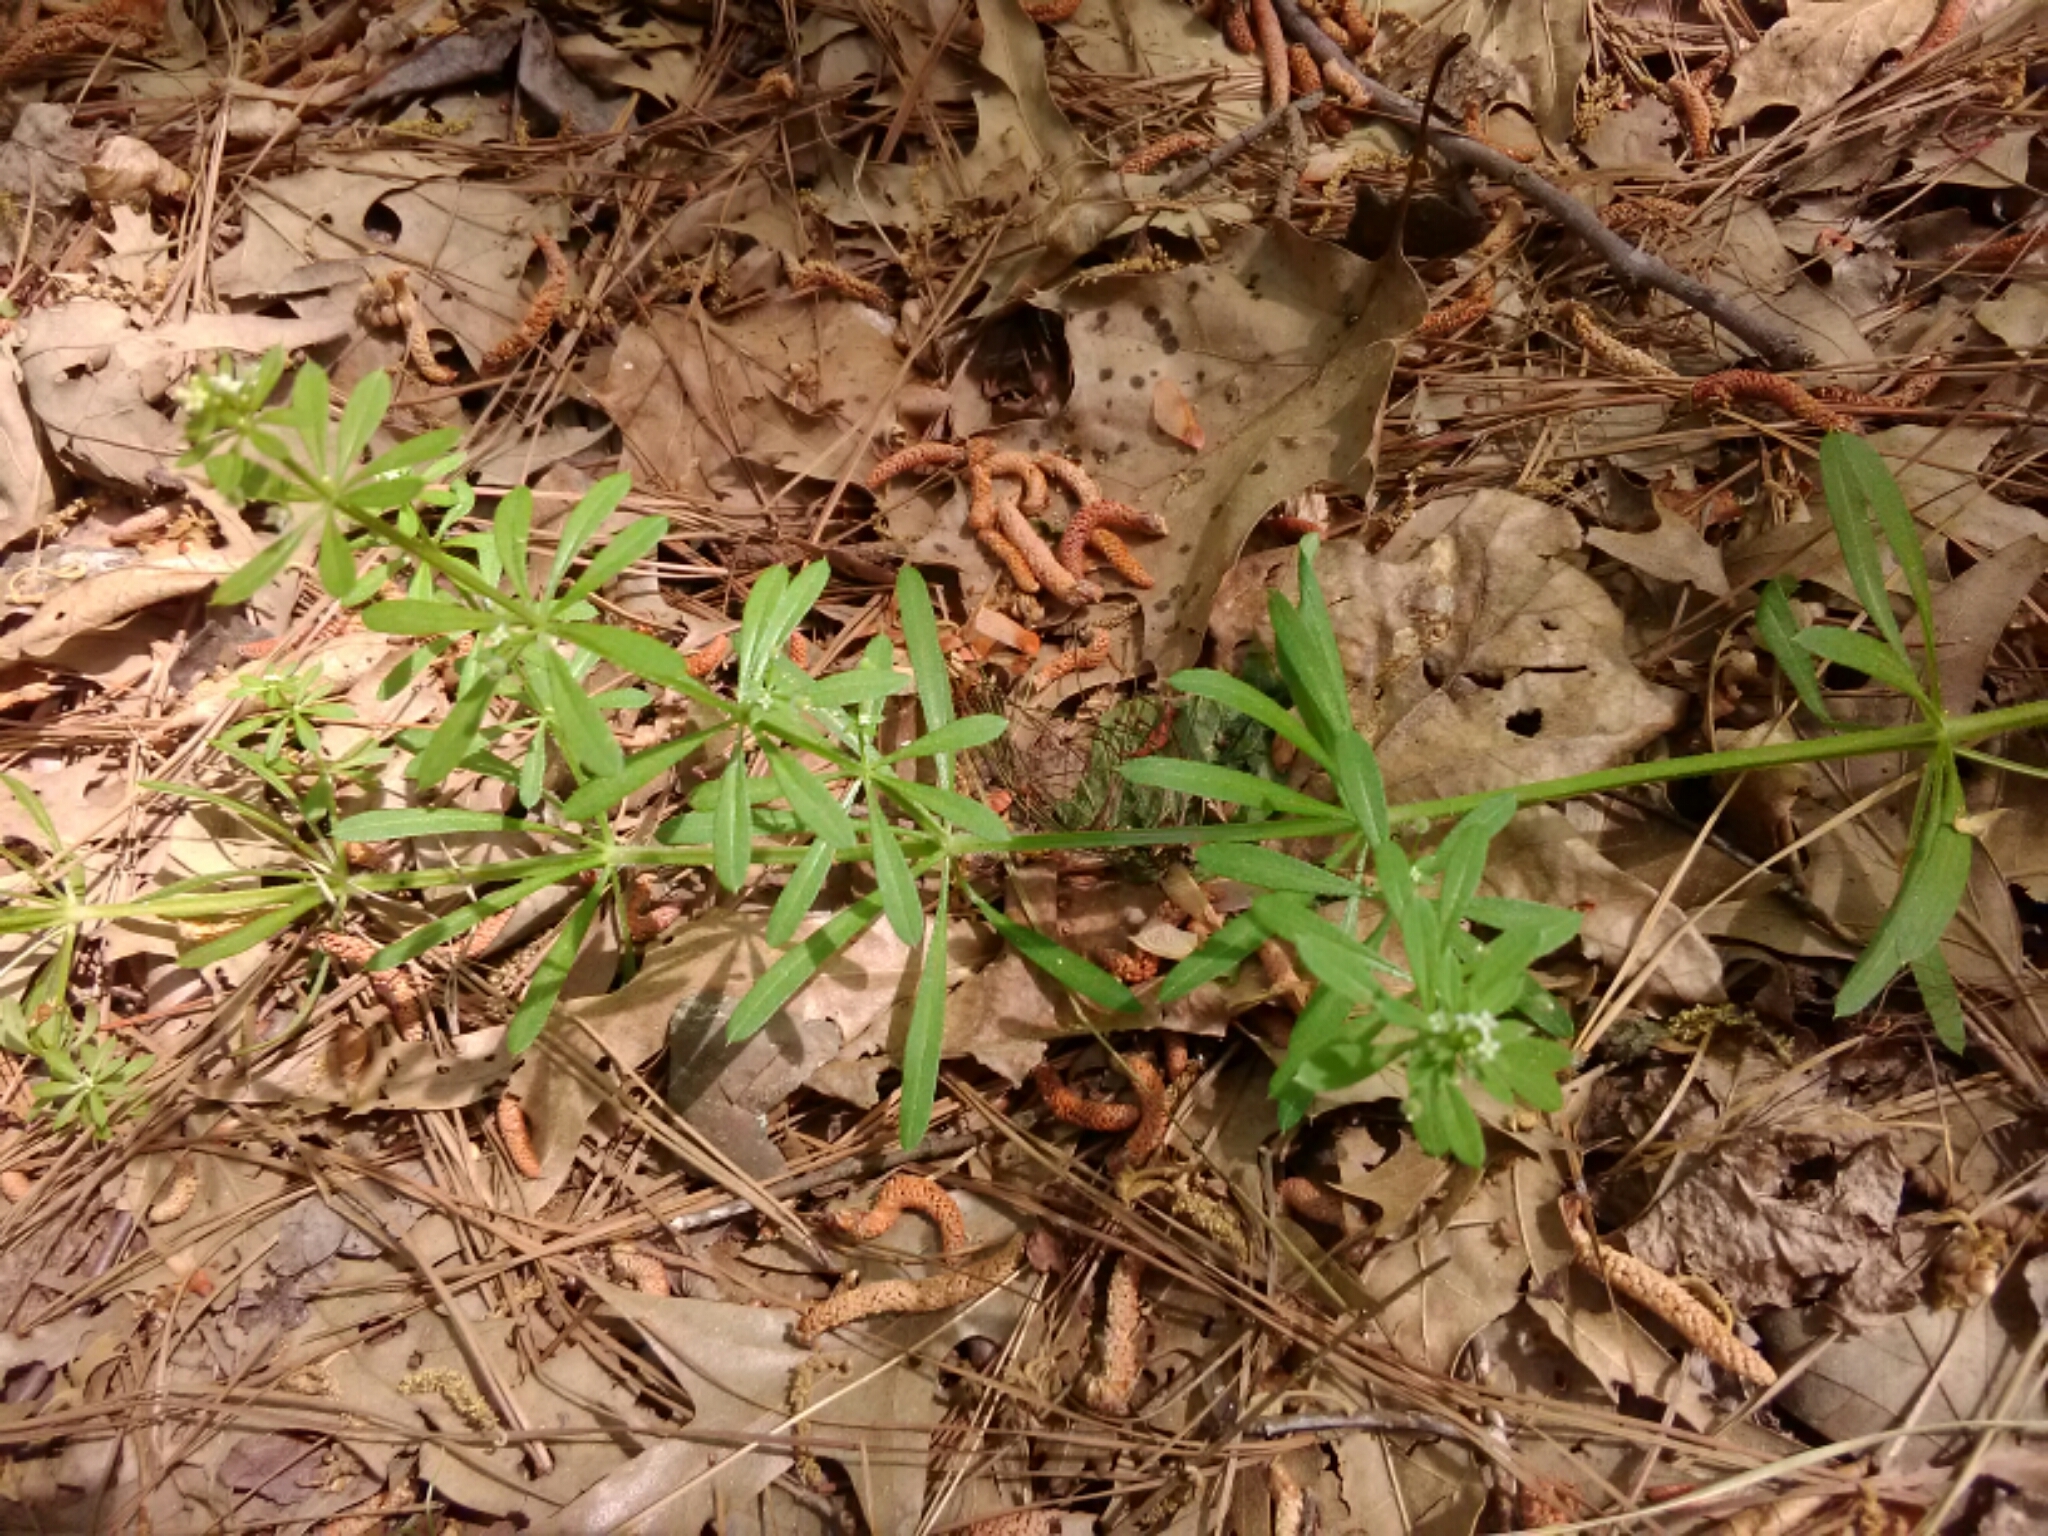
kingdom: Plantae
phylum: Tracheophyta
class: Magnoliopsida
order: Gentianales
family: Rubiaceae
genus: Galium
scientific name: Galium aparine
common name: Cleavers
